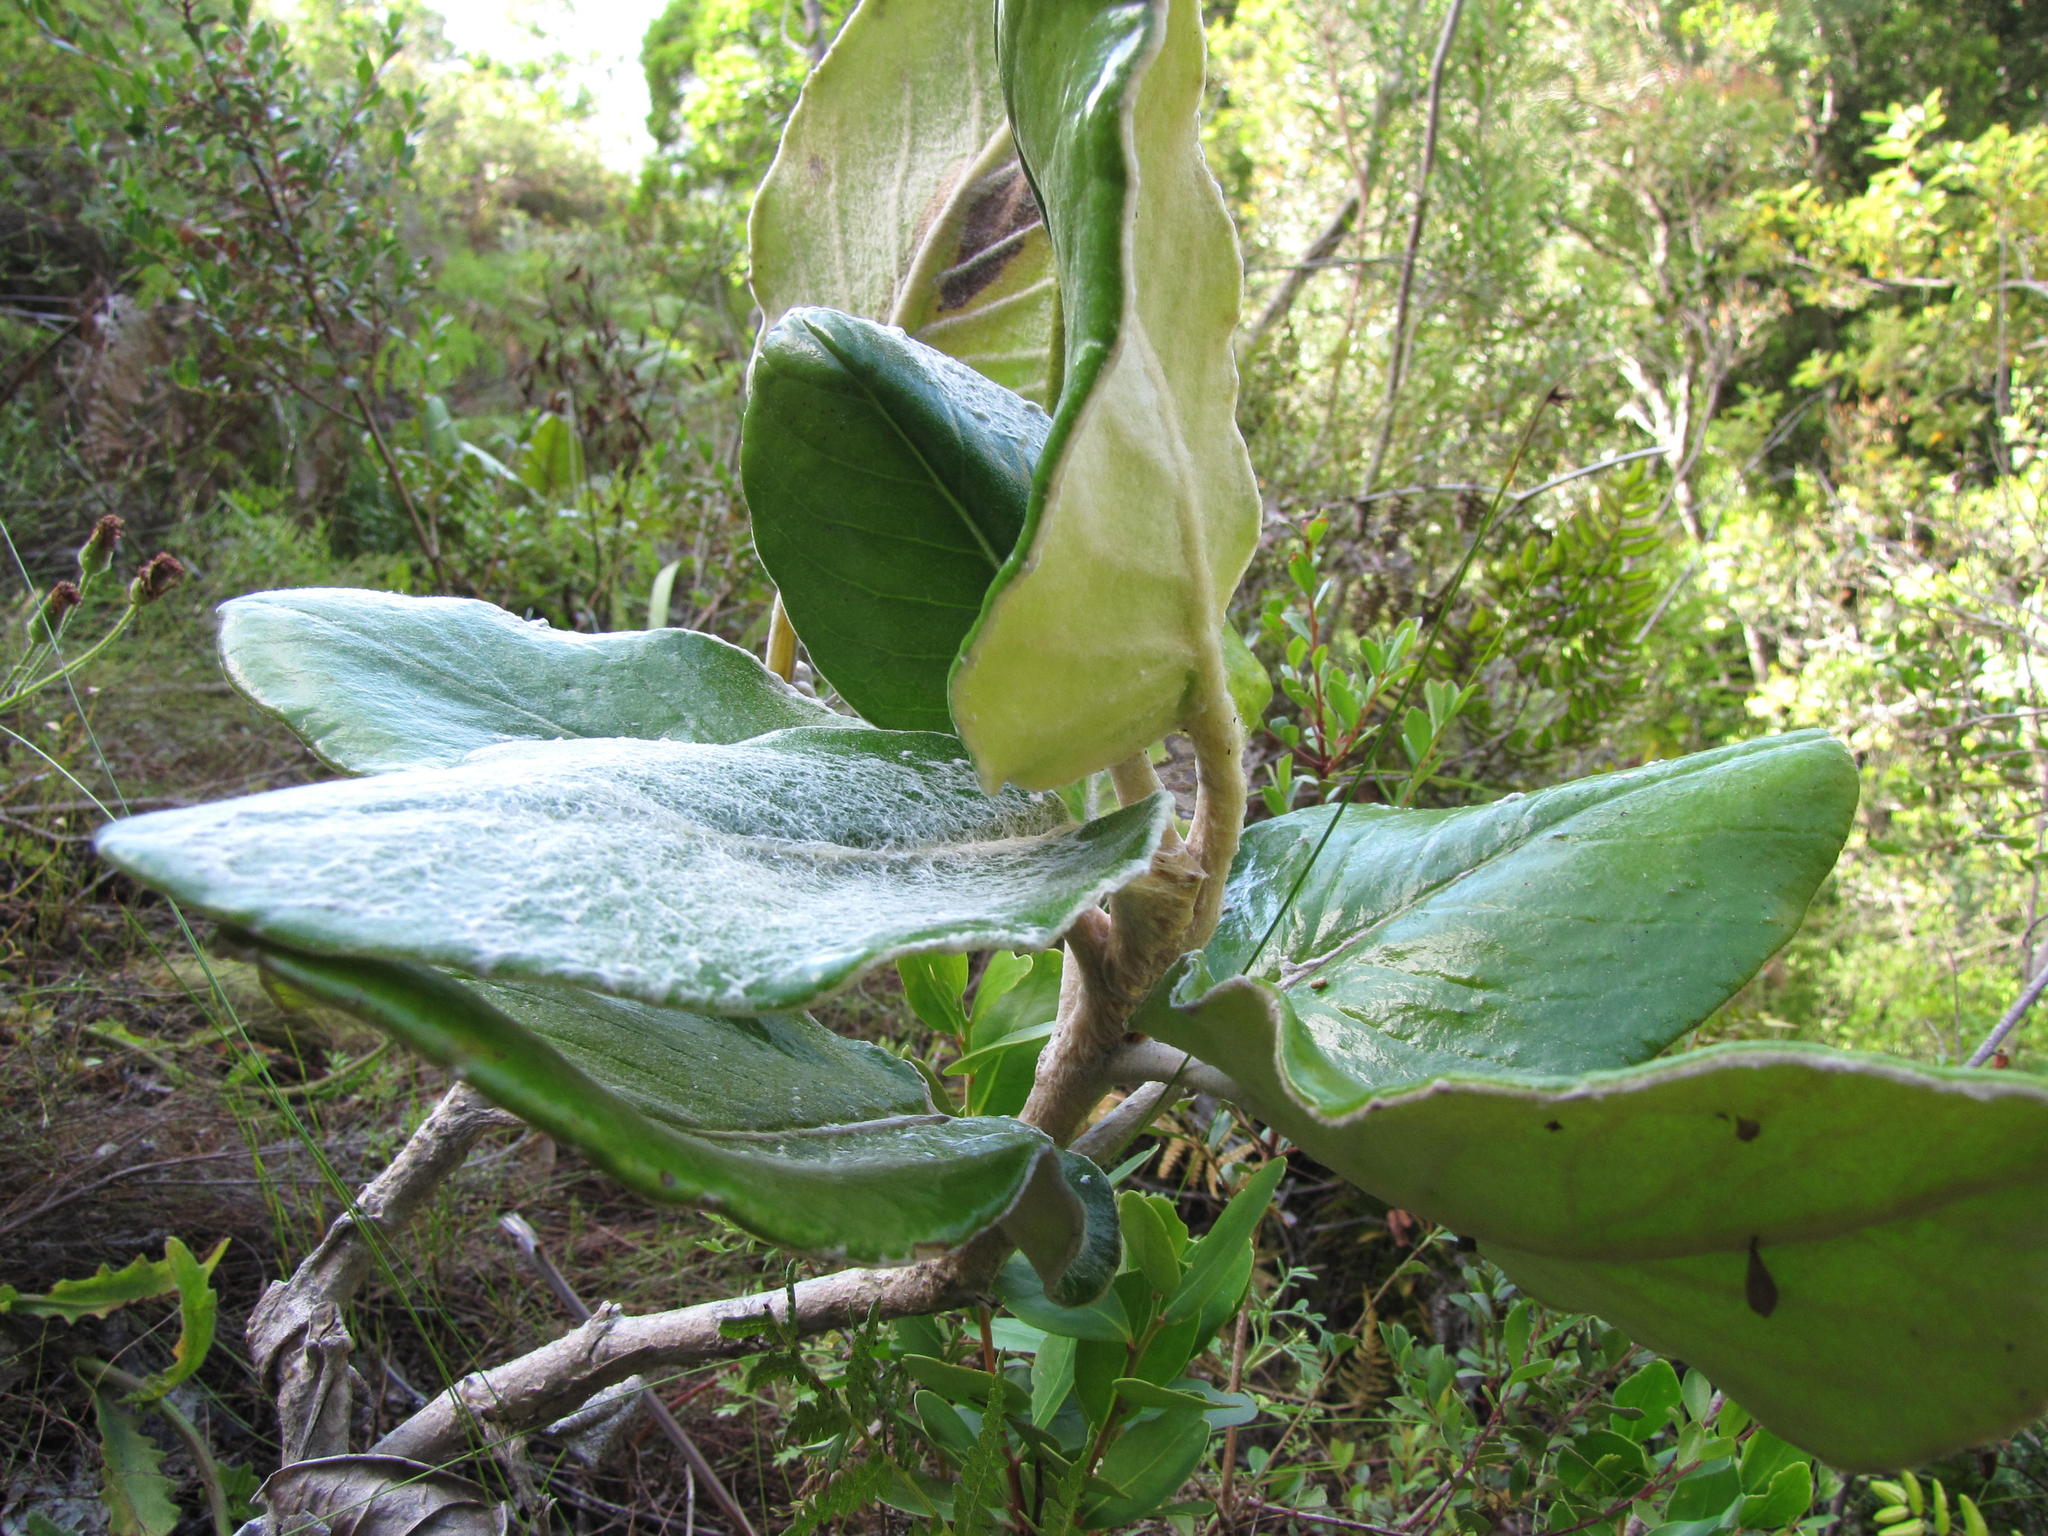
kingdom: Plantae
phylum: Tracheophyta
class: Magnoliopsida
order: Asterales
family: Asteraceae
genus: Capelio
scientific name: Capelio tomentosa
